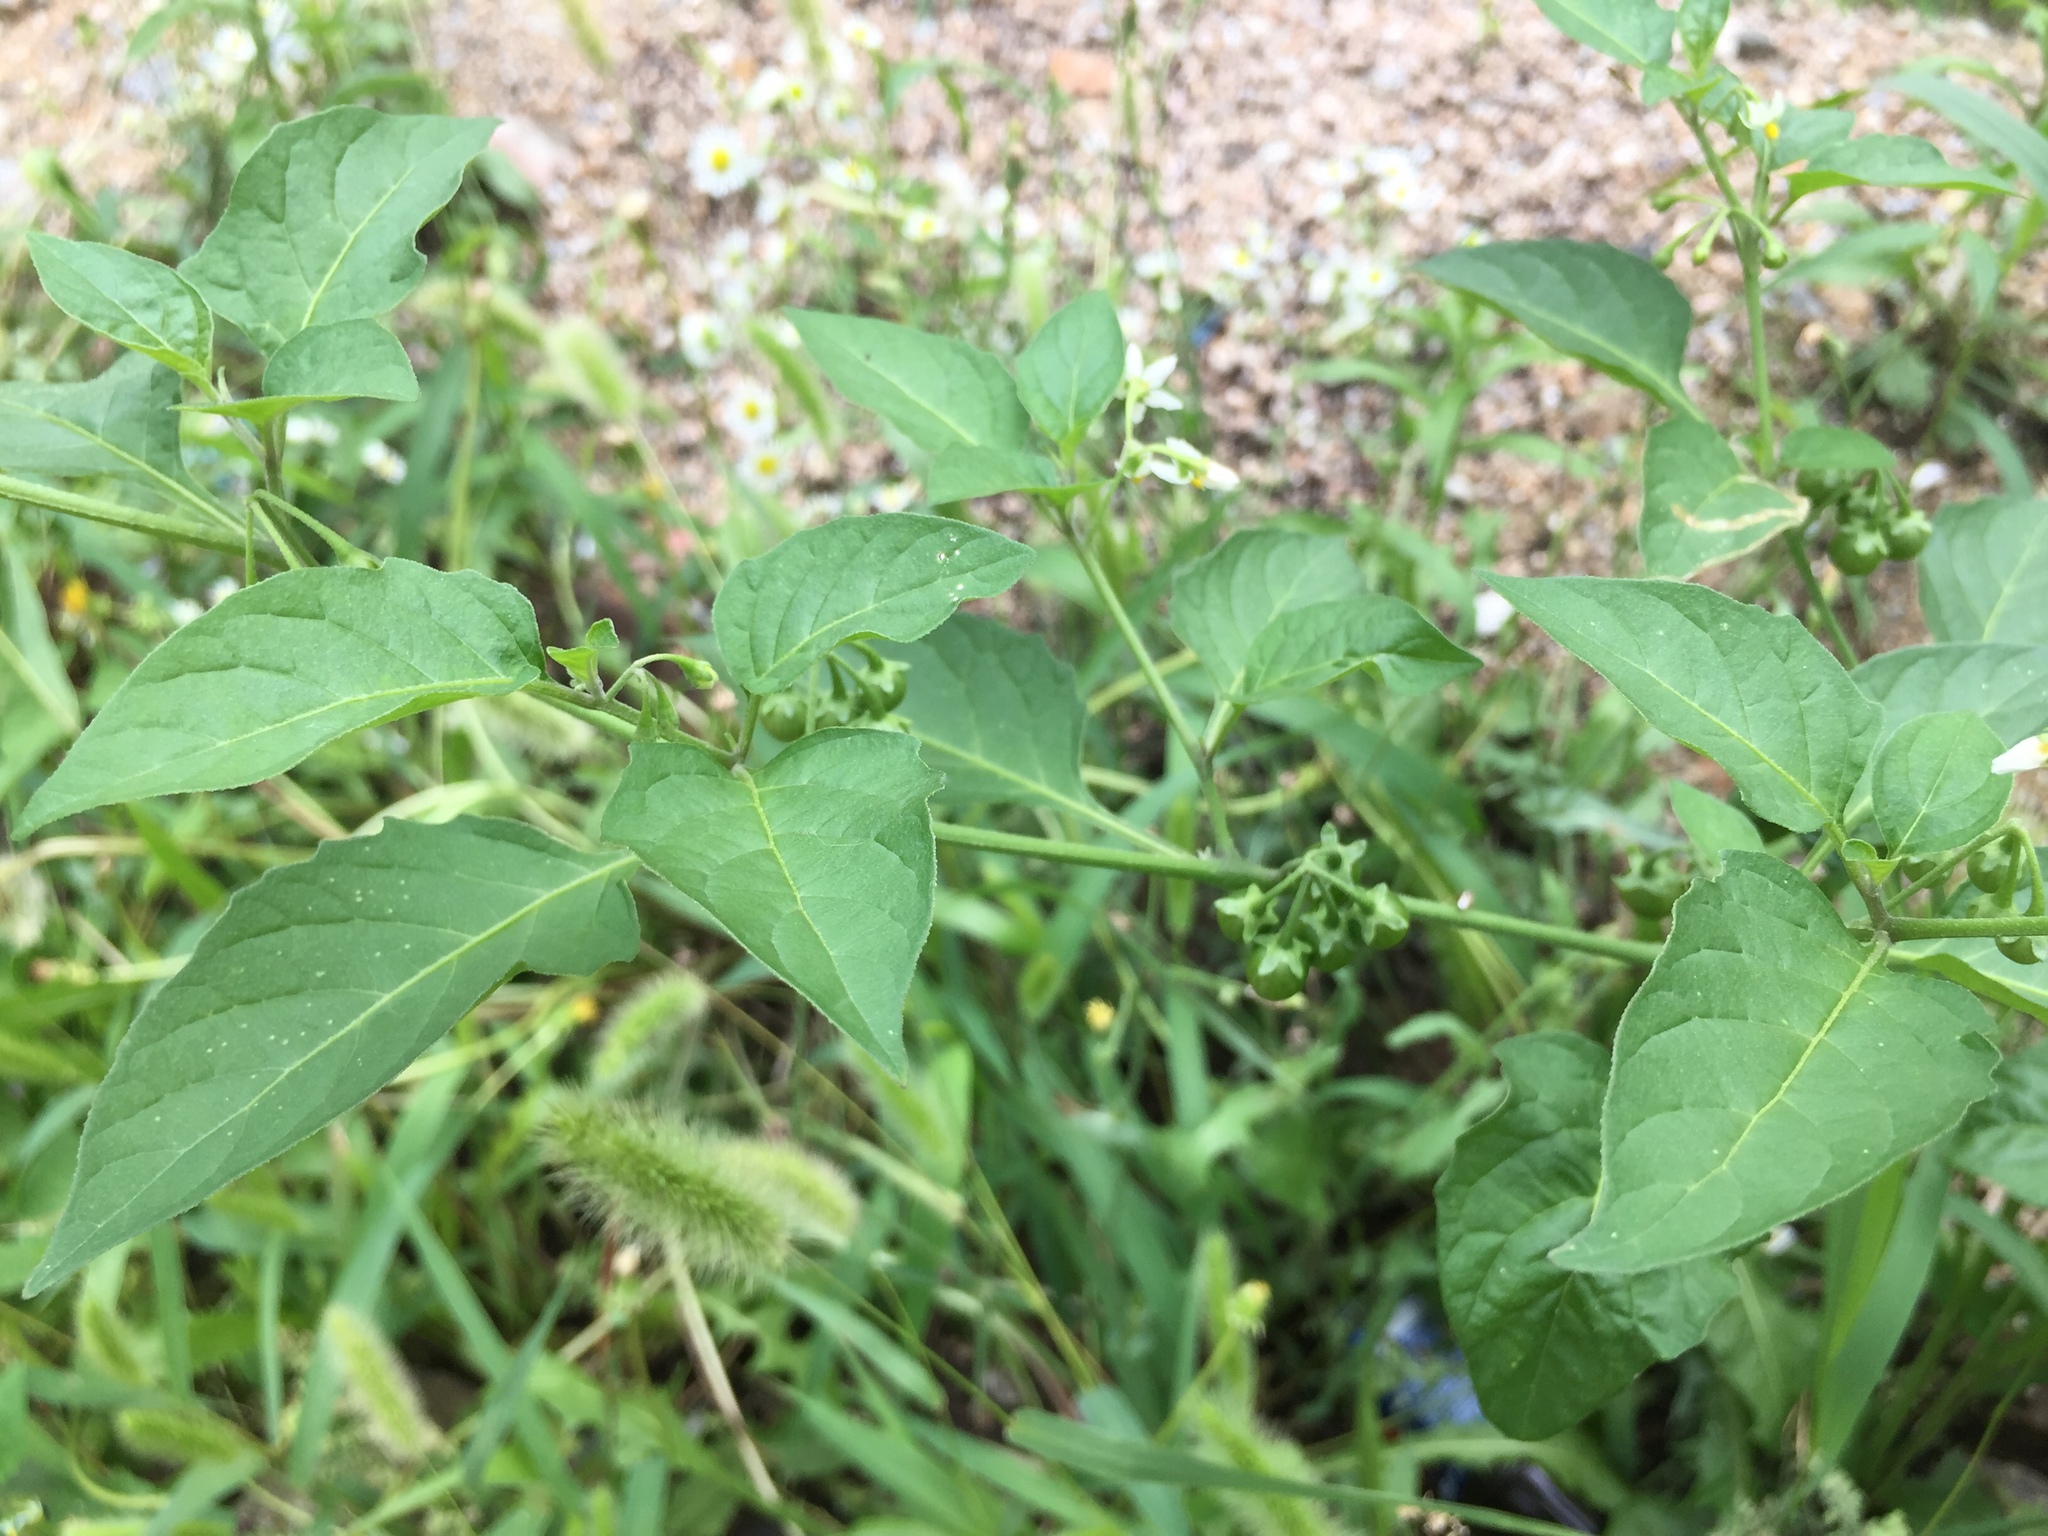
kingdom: Plantae
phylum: Tracheophyta
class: Magnoliopsida
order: Solanales
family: Solanaceae
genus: Solanum
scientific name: Solanum nigrum
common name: Black nightshade
